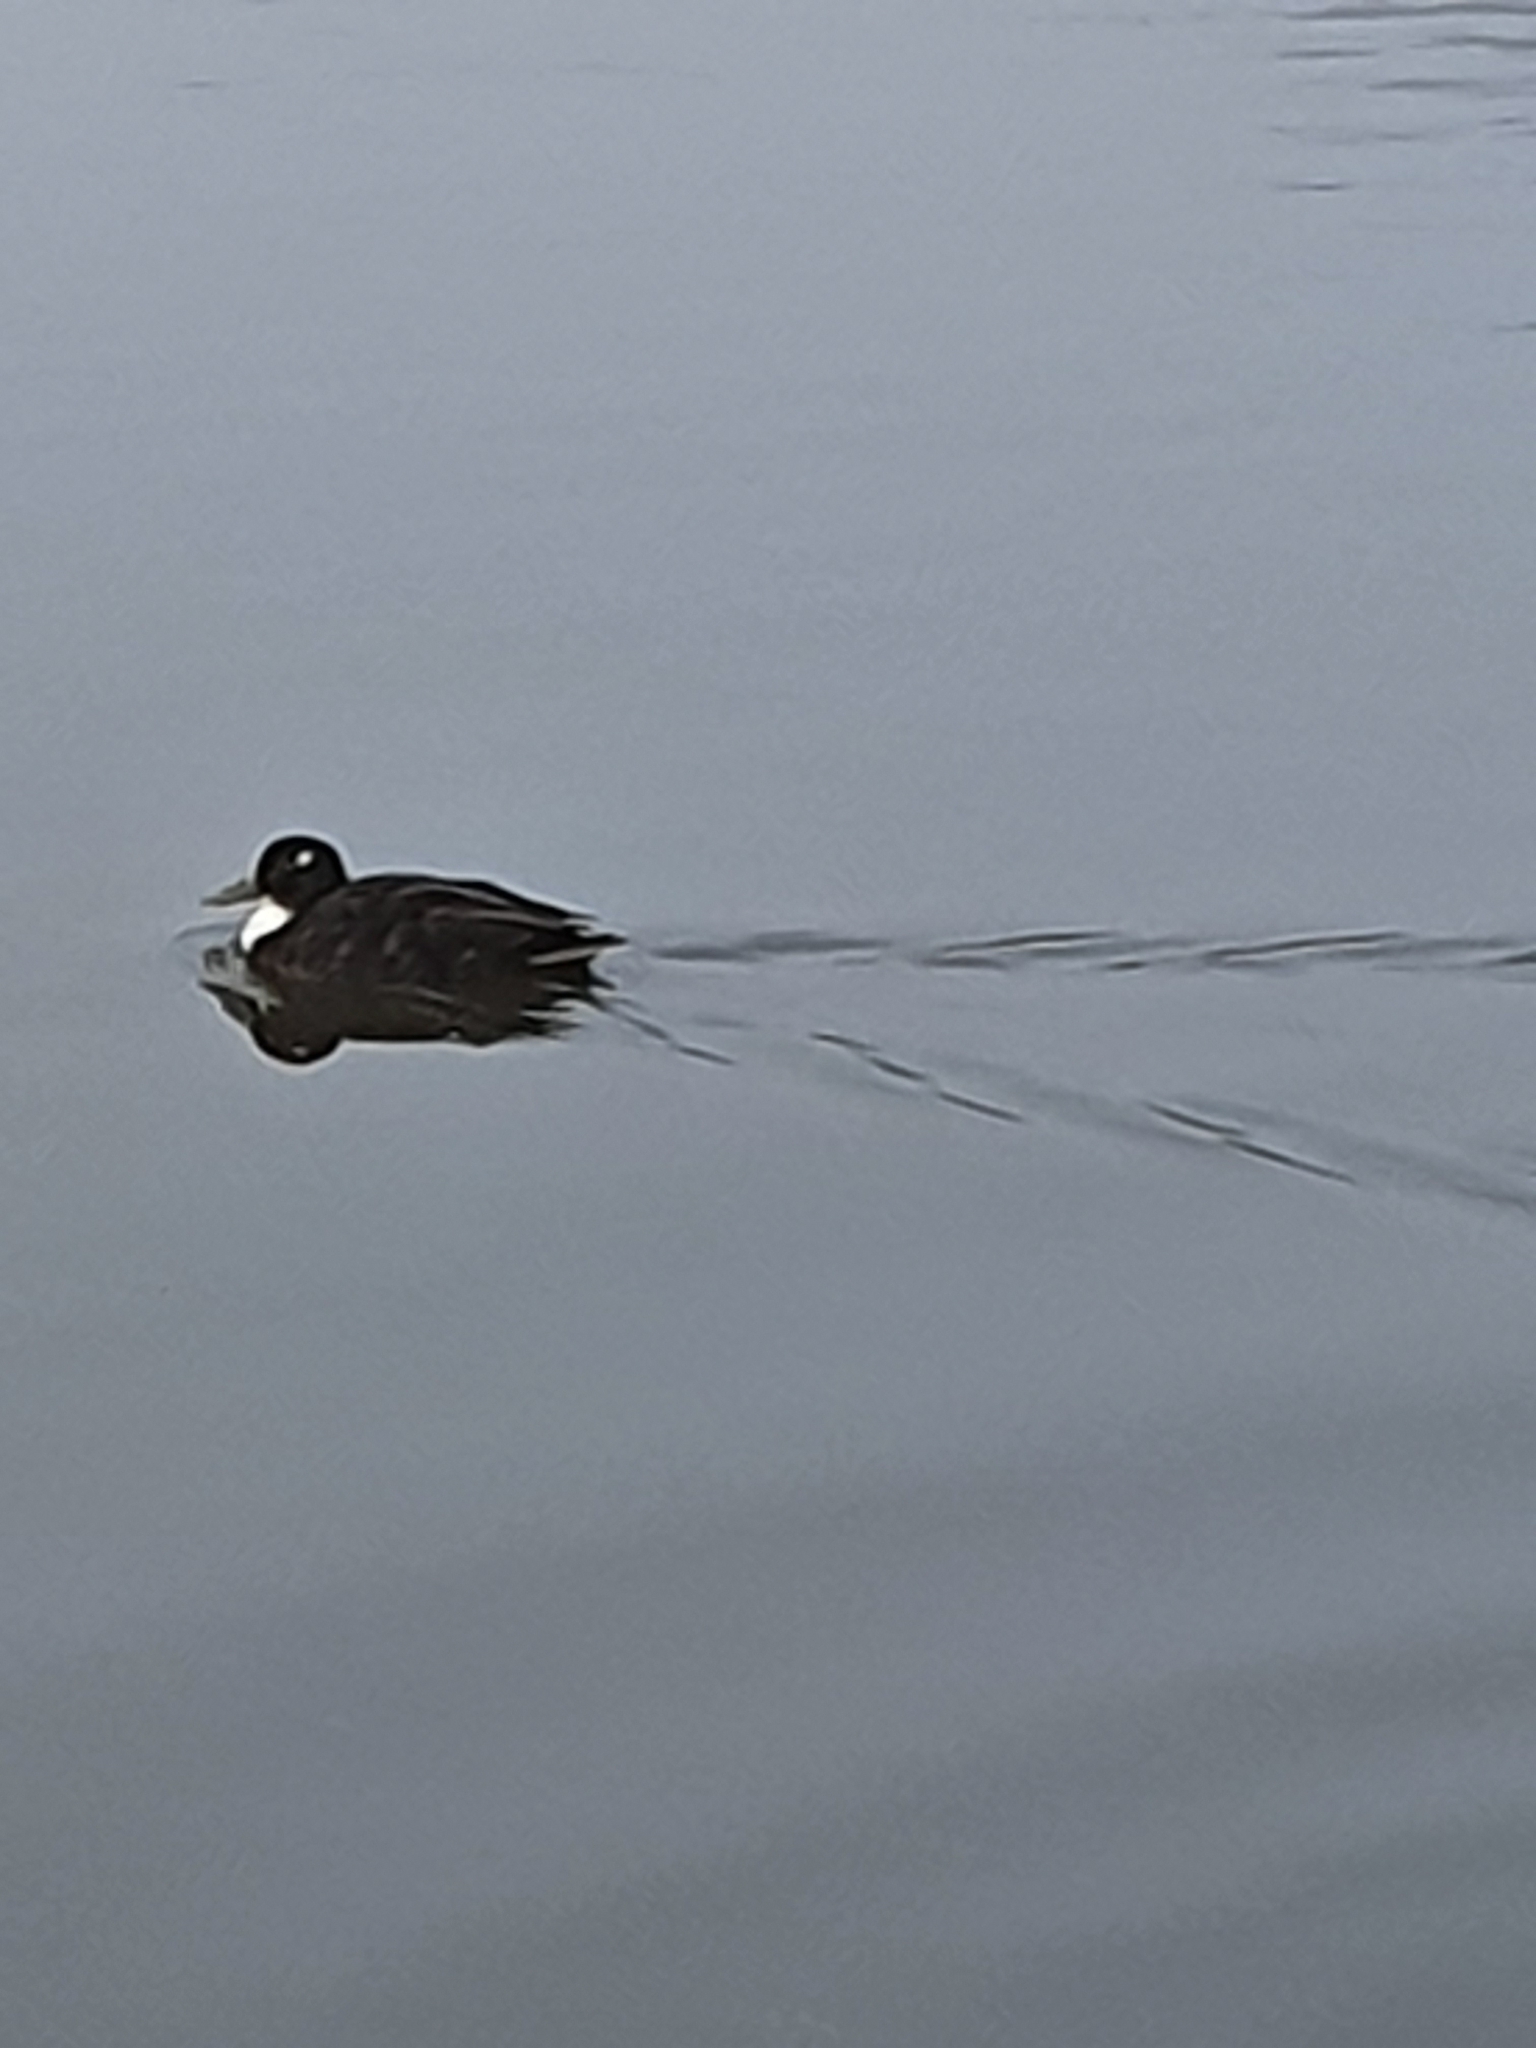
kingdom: Animalia
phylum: Chordata
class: Aves
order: Anseriformes
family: Anatidae
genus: Anas
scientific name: Anas platyrhynchos
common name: Mallard
